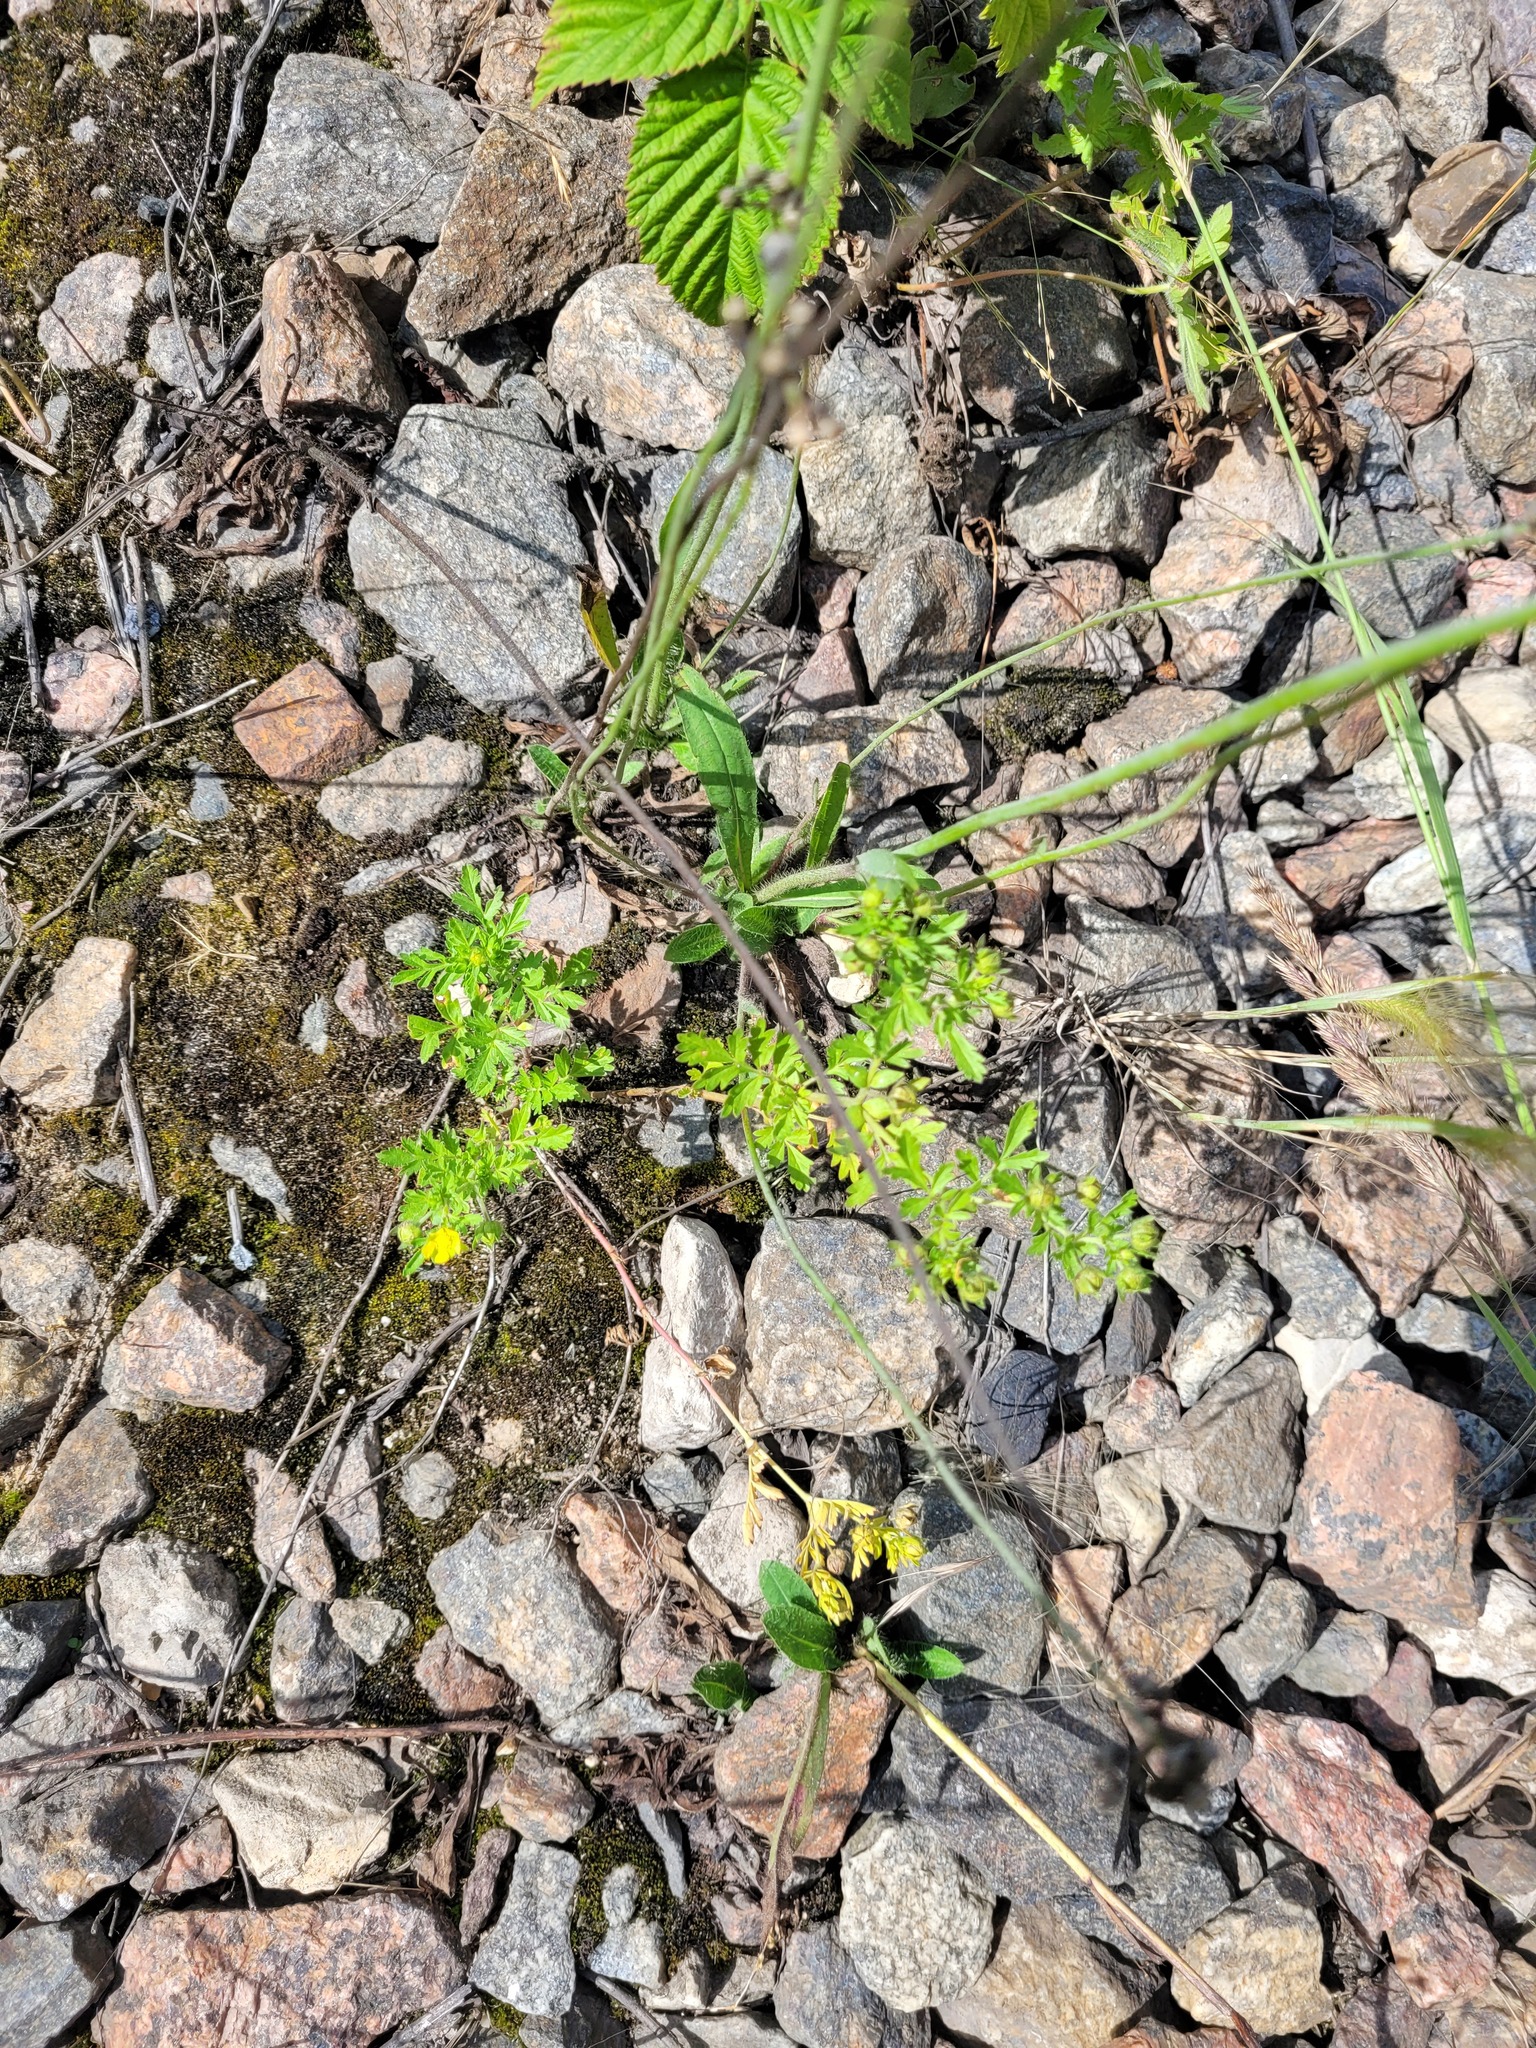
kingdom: Plantae
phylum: Tracheophyta
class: Magnoliopsida
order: Rosales
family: Rosaceae
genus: Potentilla
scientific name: Potentilla supina
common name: Prostrate cinquefoil
